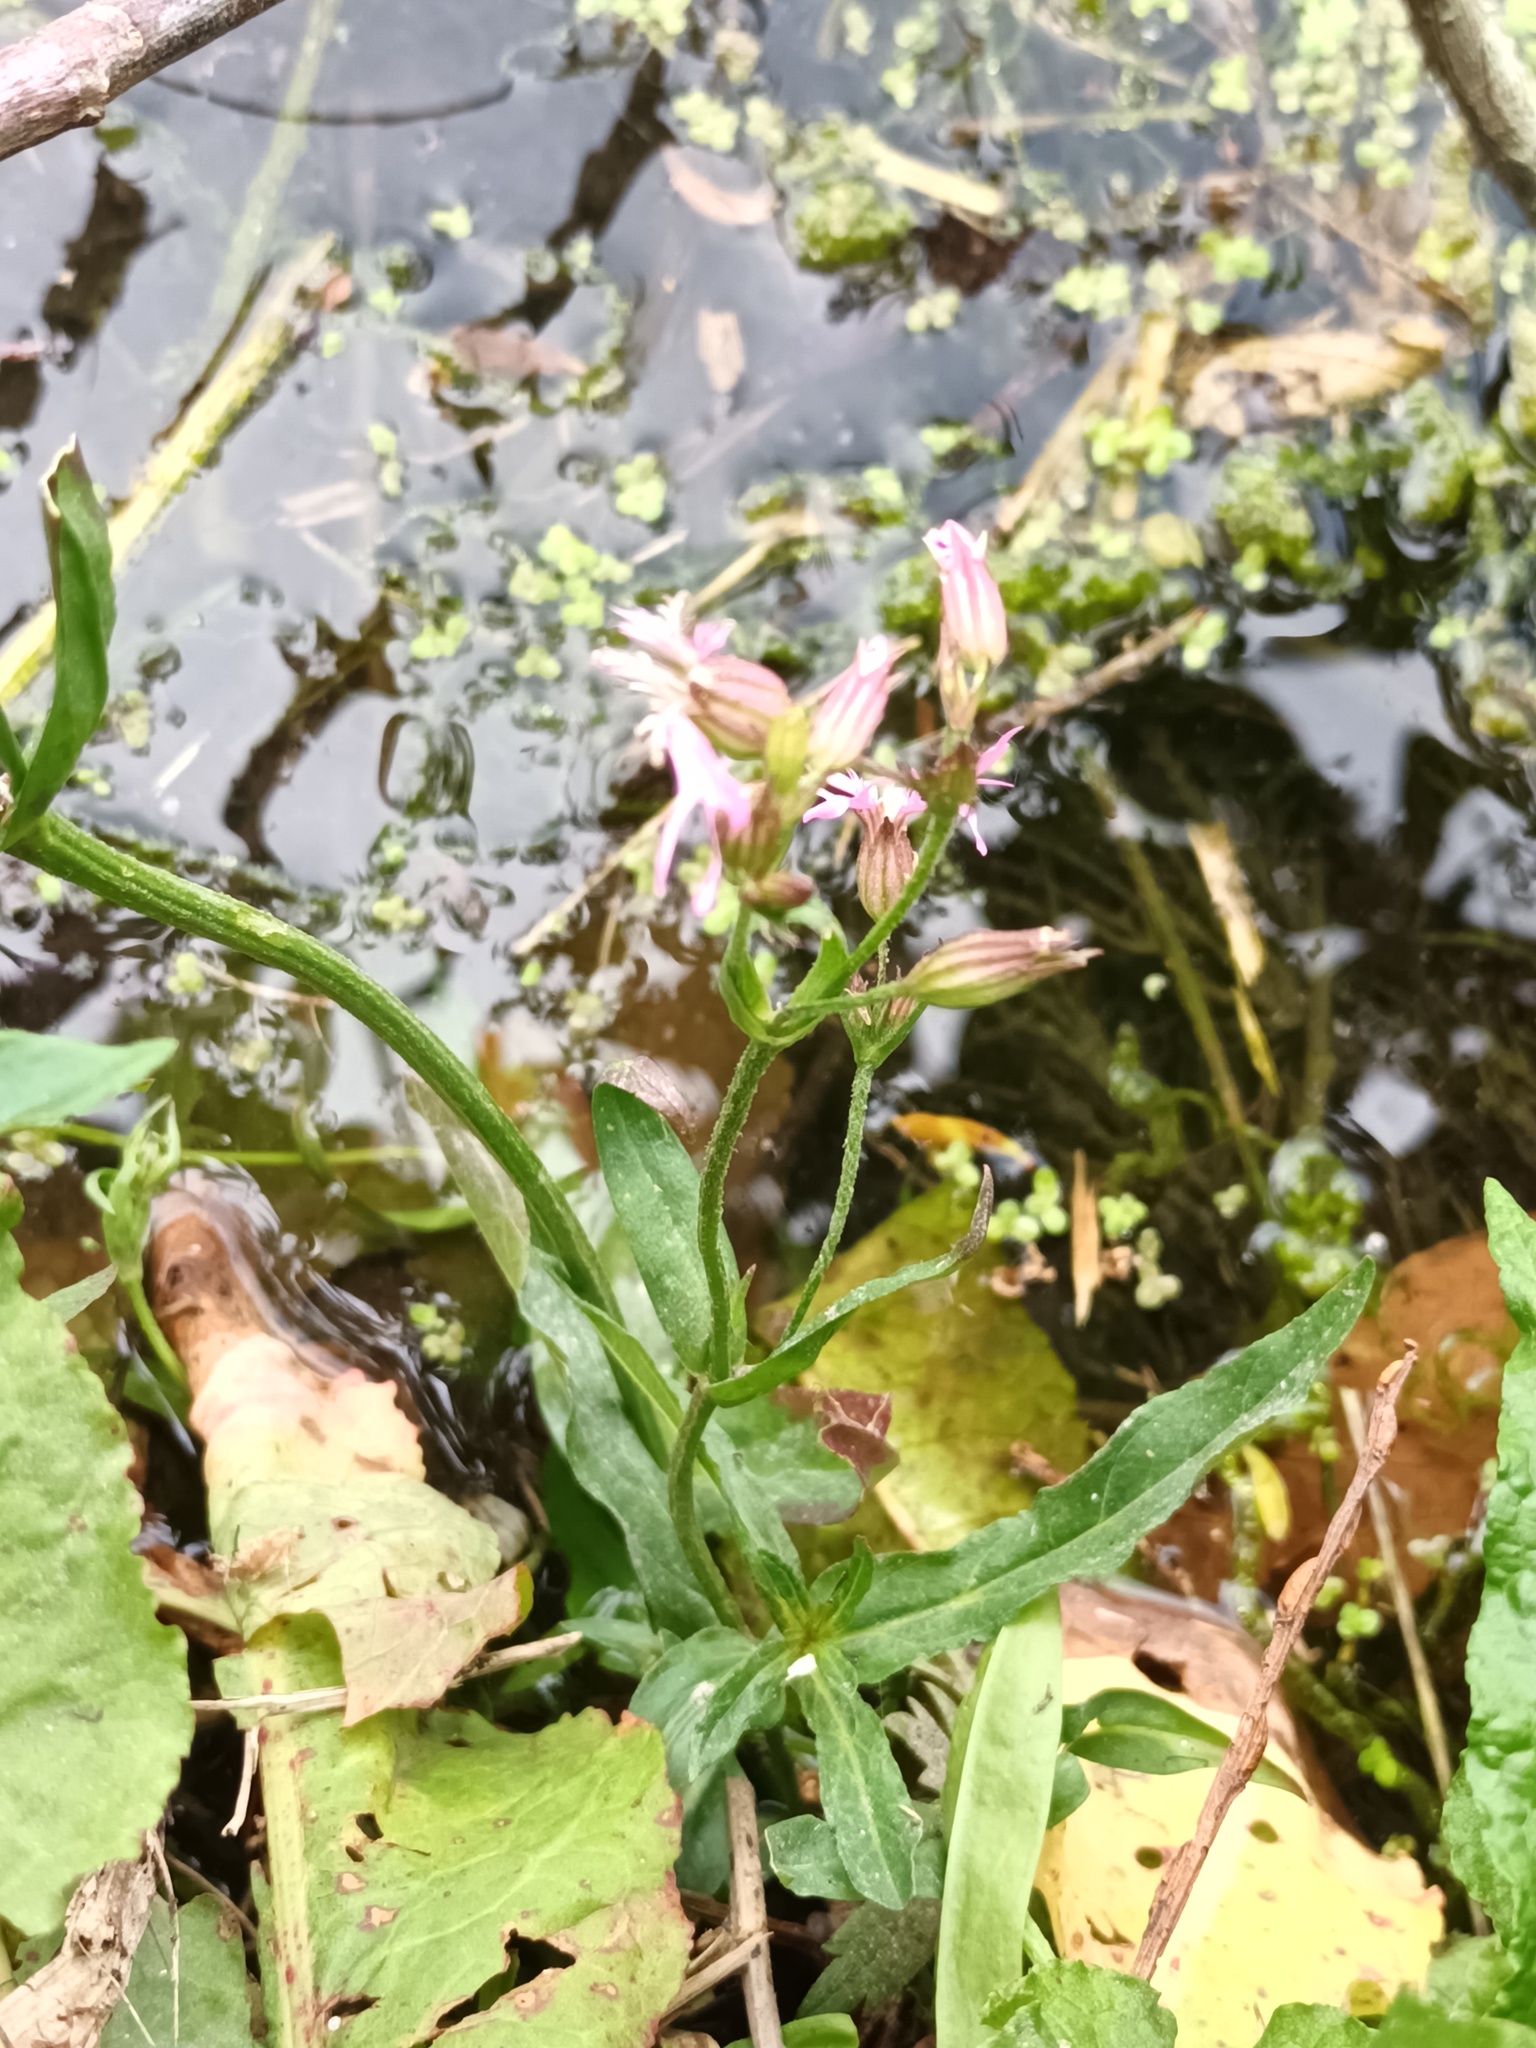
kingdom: Plantae
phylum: Tracheophyta
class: Magnoliopsida
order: Caryophyllales
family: Caryophyllaceae
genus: Silene
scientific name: Silene flos-cuculi
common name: Ragged-robin
